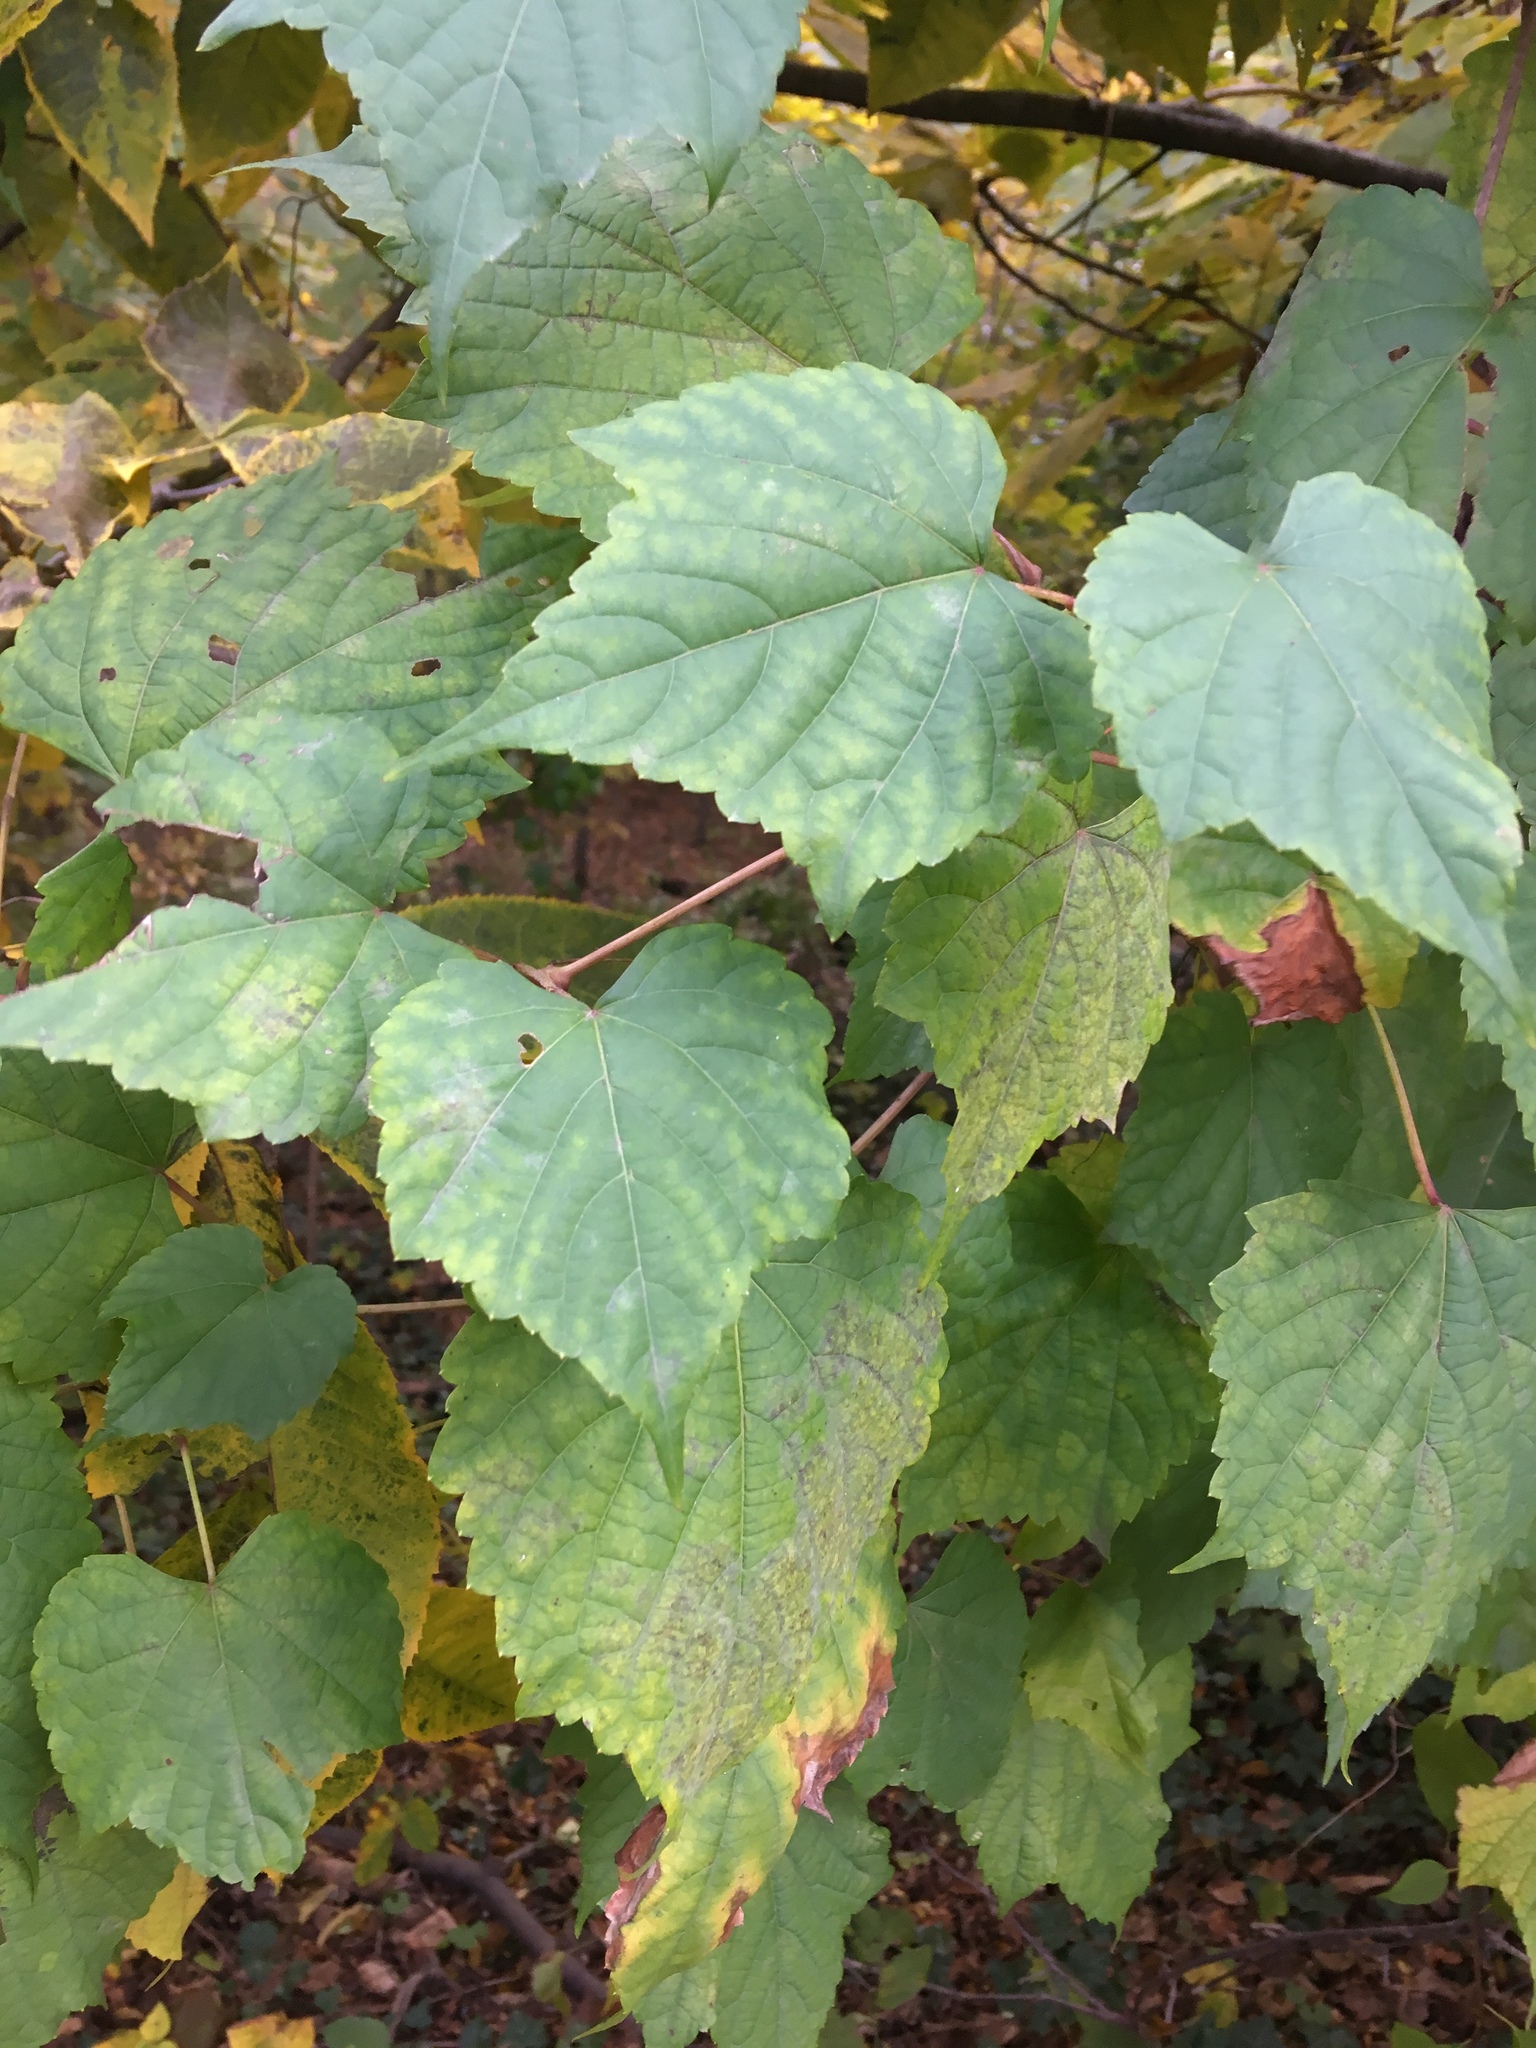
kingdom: Plantae
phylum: Tracheophyta
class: Magnoliopsida
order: Vitales
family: Vitaceae
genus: Ampelopsis
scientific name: Ampelopsis glandulosa
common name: Amur peppervine
